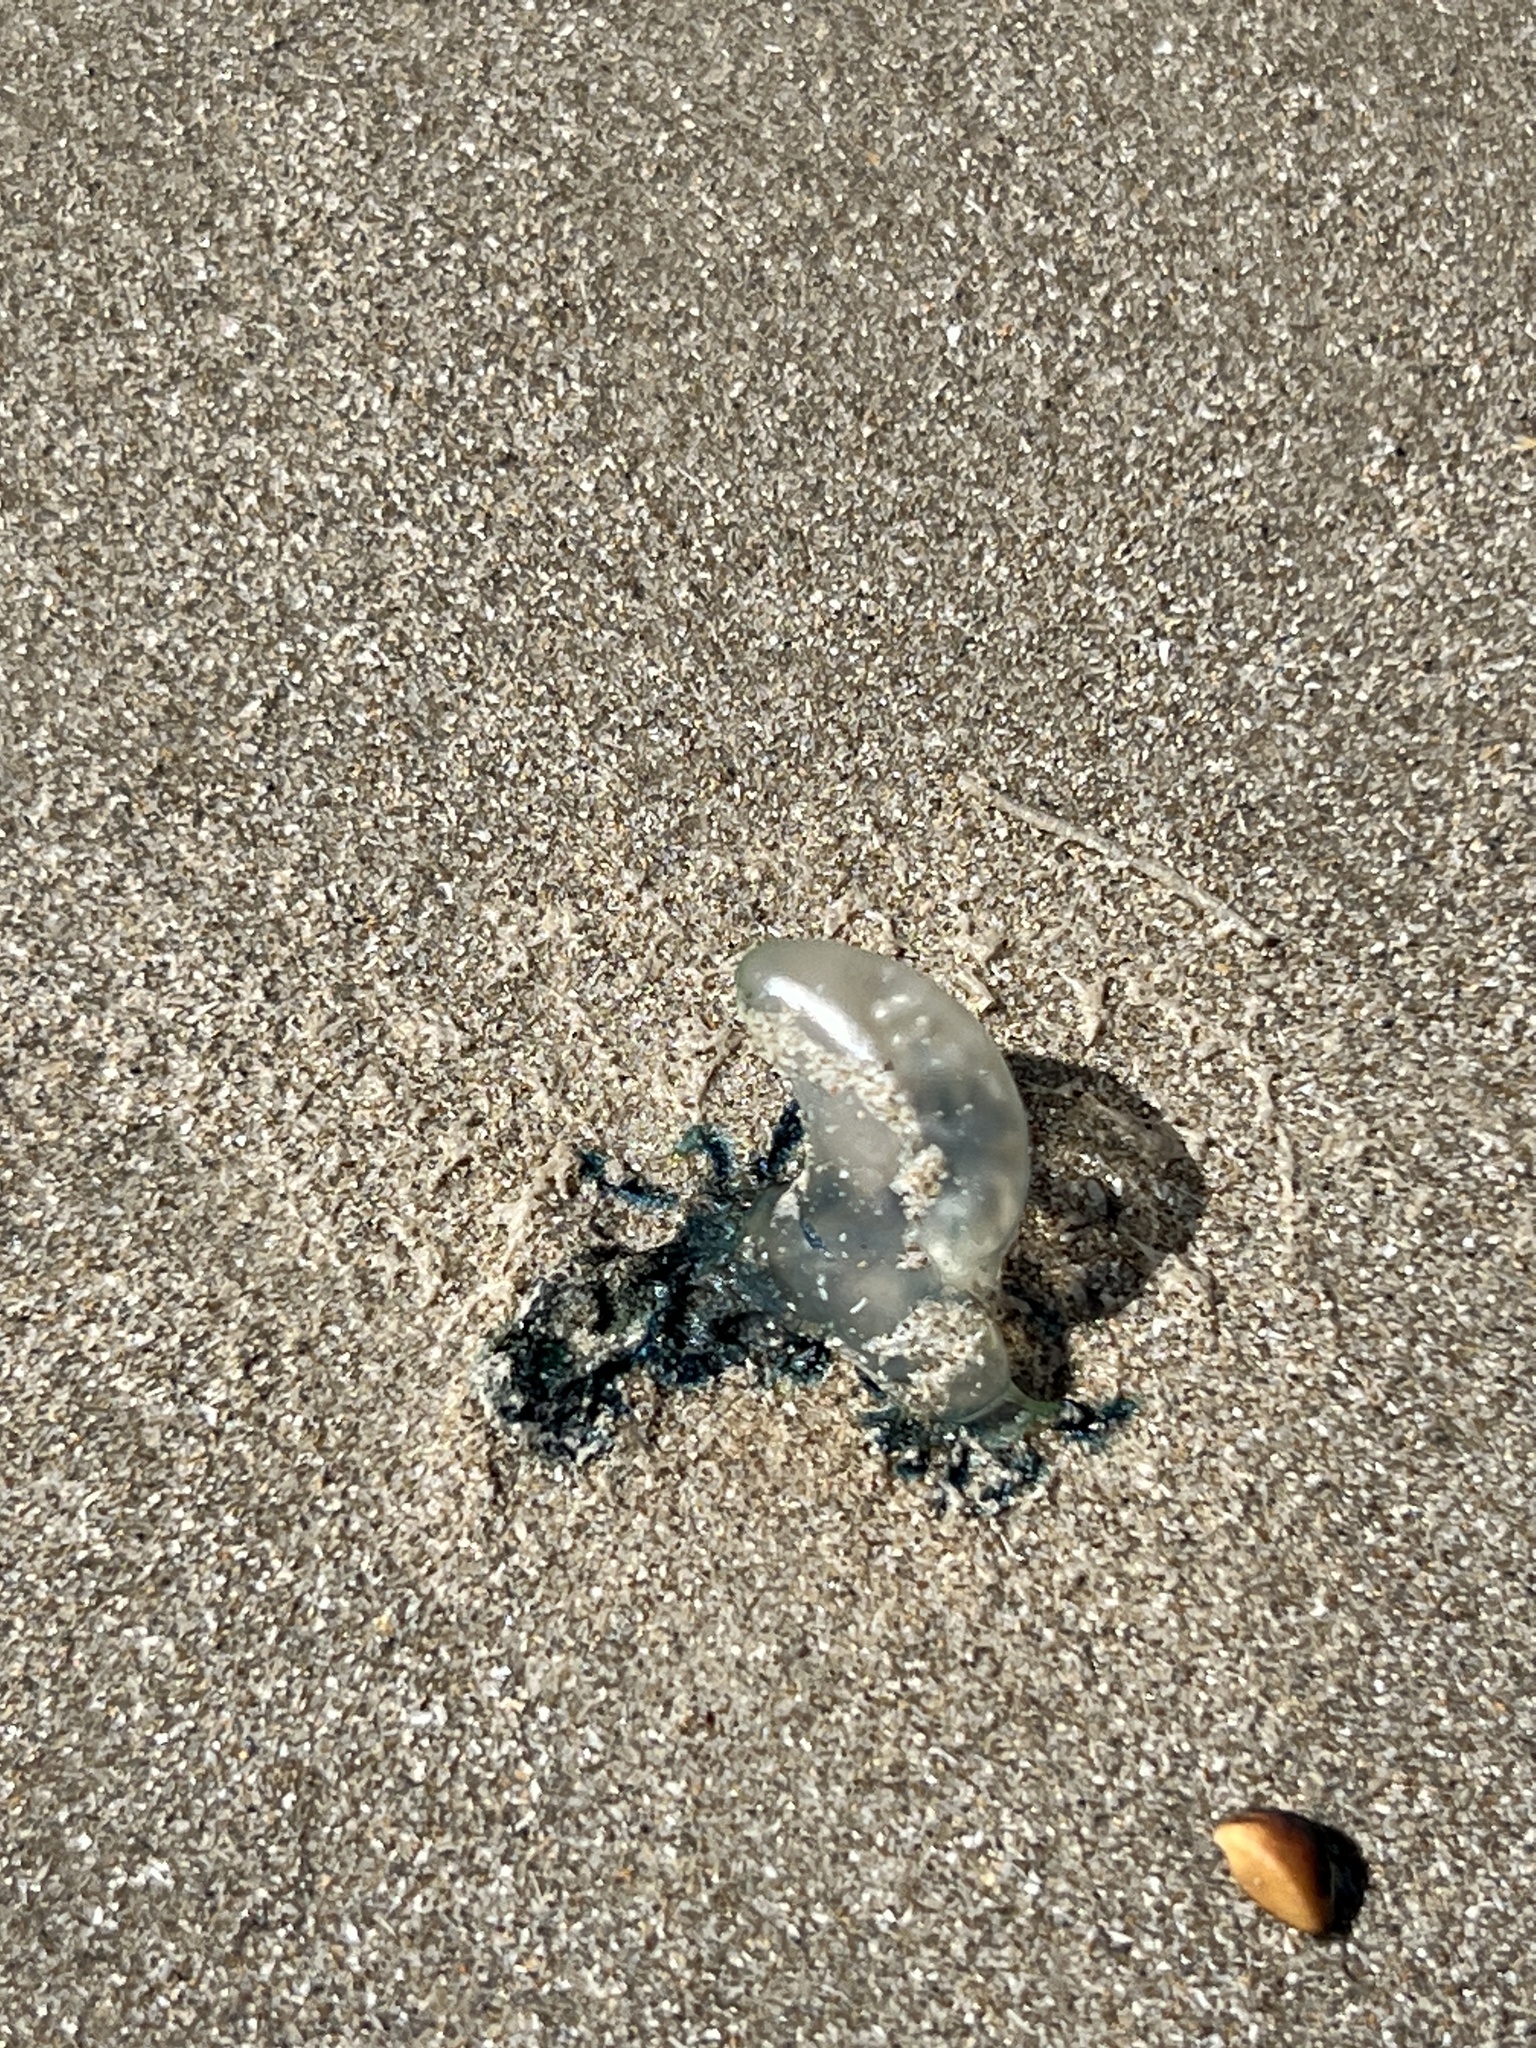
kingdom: Animalia
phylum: Cnidaria
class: Hydrozoa
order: Siphonophorae
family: Physaliidae
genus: Physalia
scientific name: Physalia physalis
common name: Portuguese man-of-war
